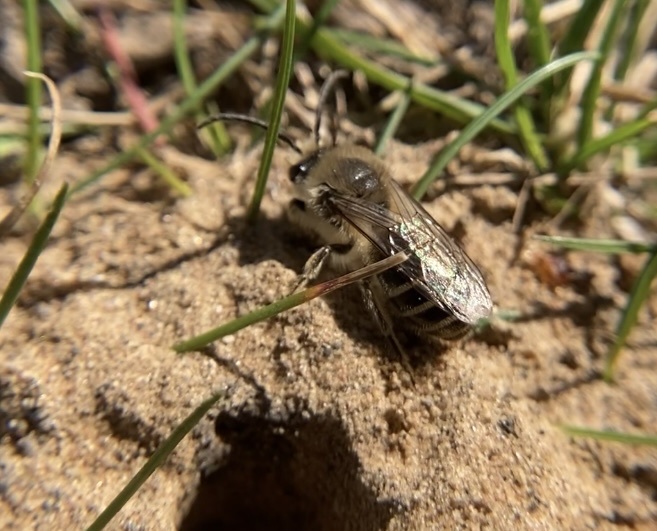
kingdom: Animalia
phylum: Arthropoda
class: Insecta
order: Hymenoptera
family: Colletidae
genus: Colletes
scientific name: Colletes inaequalis
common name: Unequal cellophane bee
